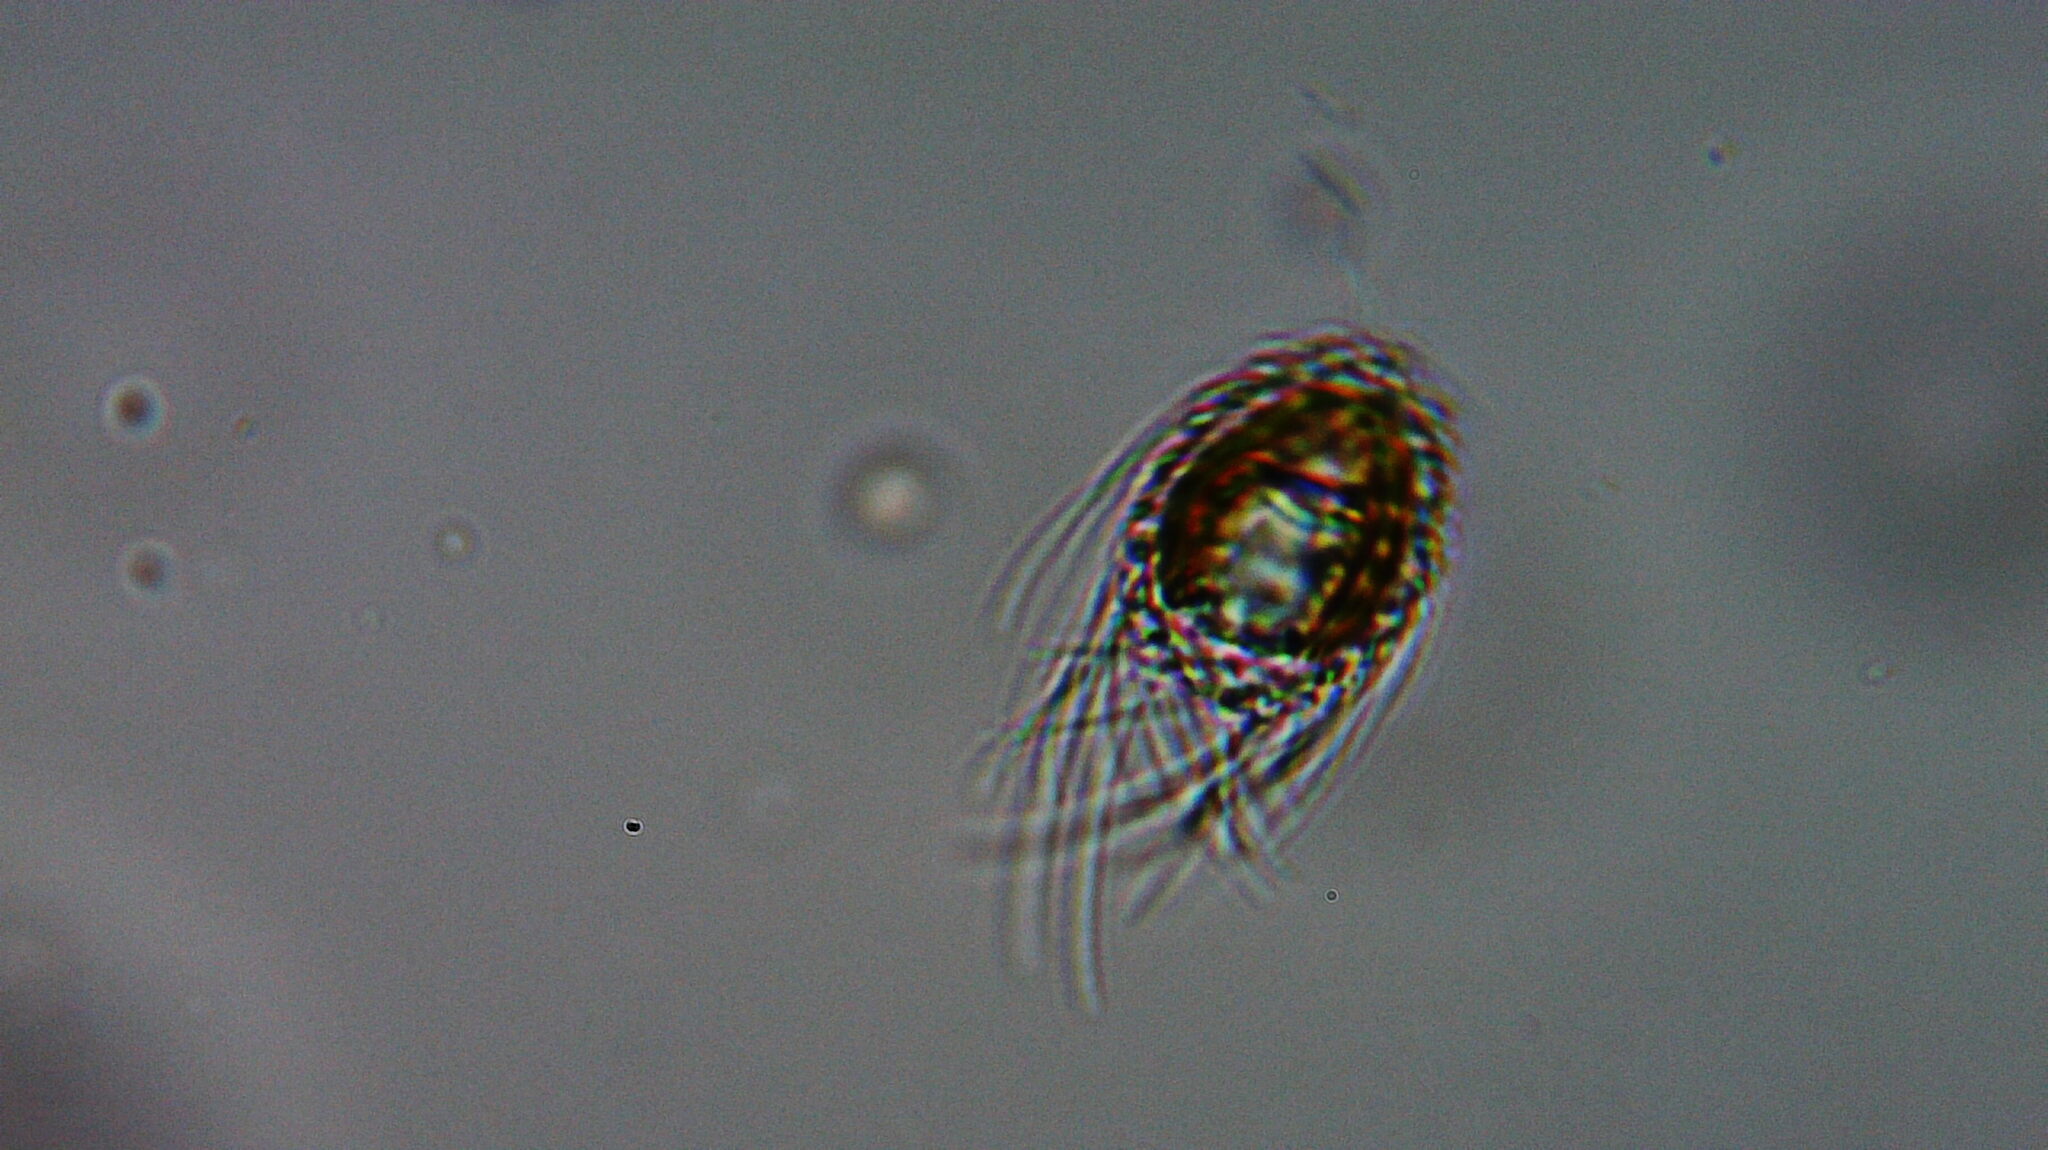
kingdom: Chromista
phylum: Ochrophyta
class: Chrysophyceae
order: Synurales
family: Mallomonadaceae
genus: Mallomonas
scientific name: Mallomonas
